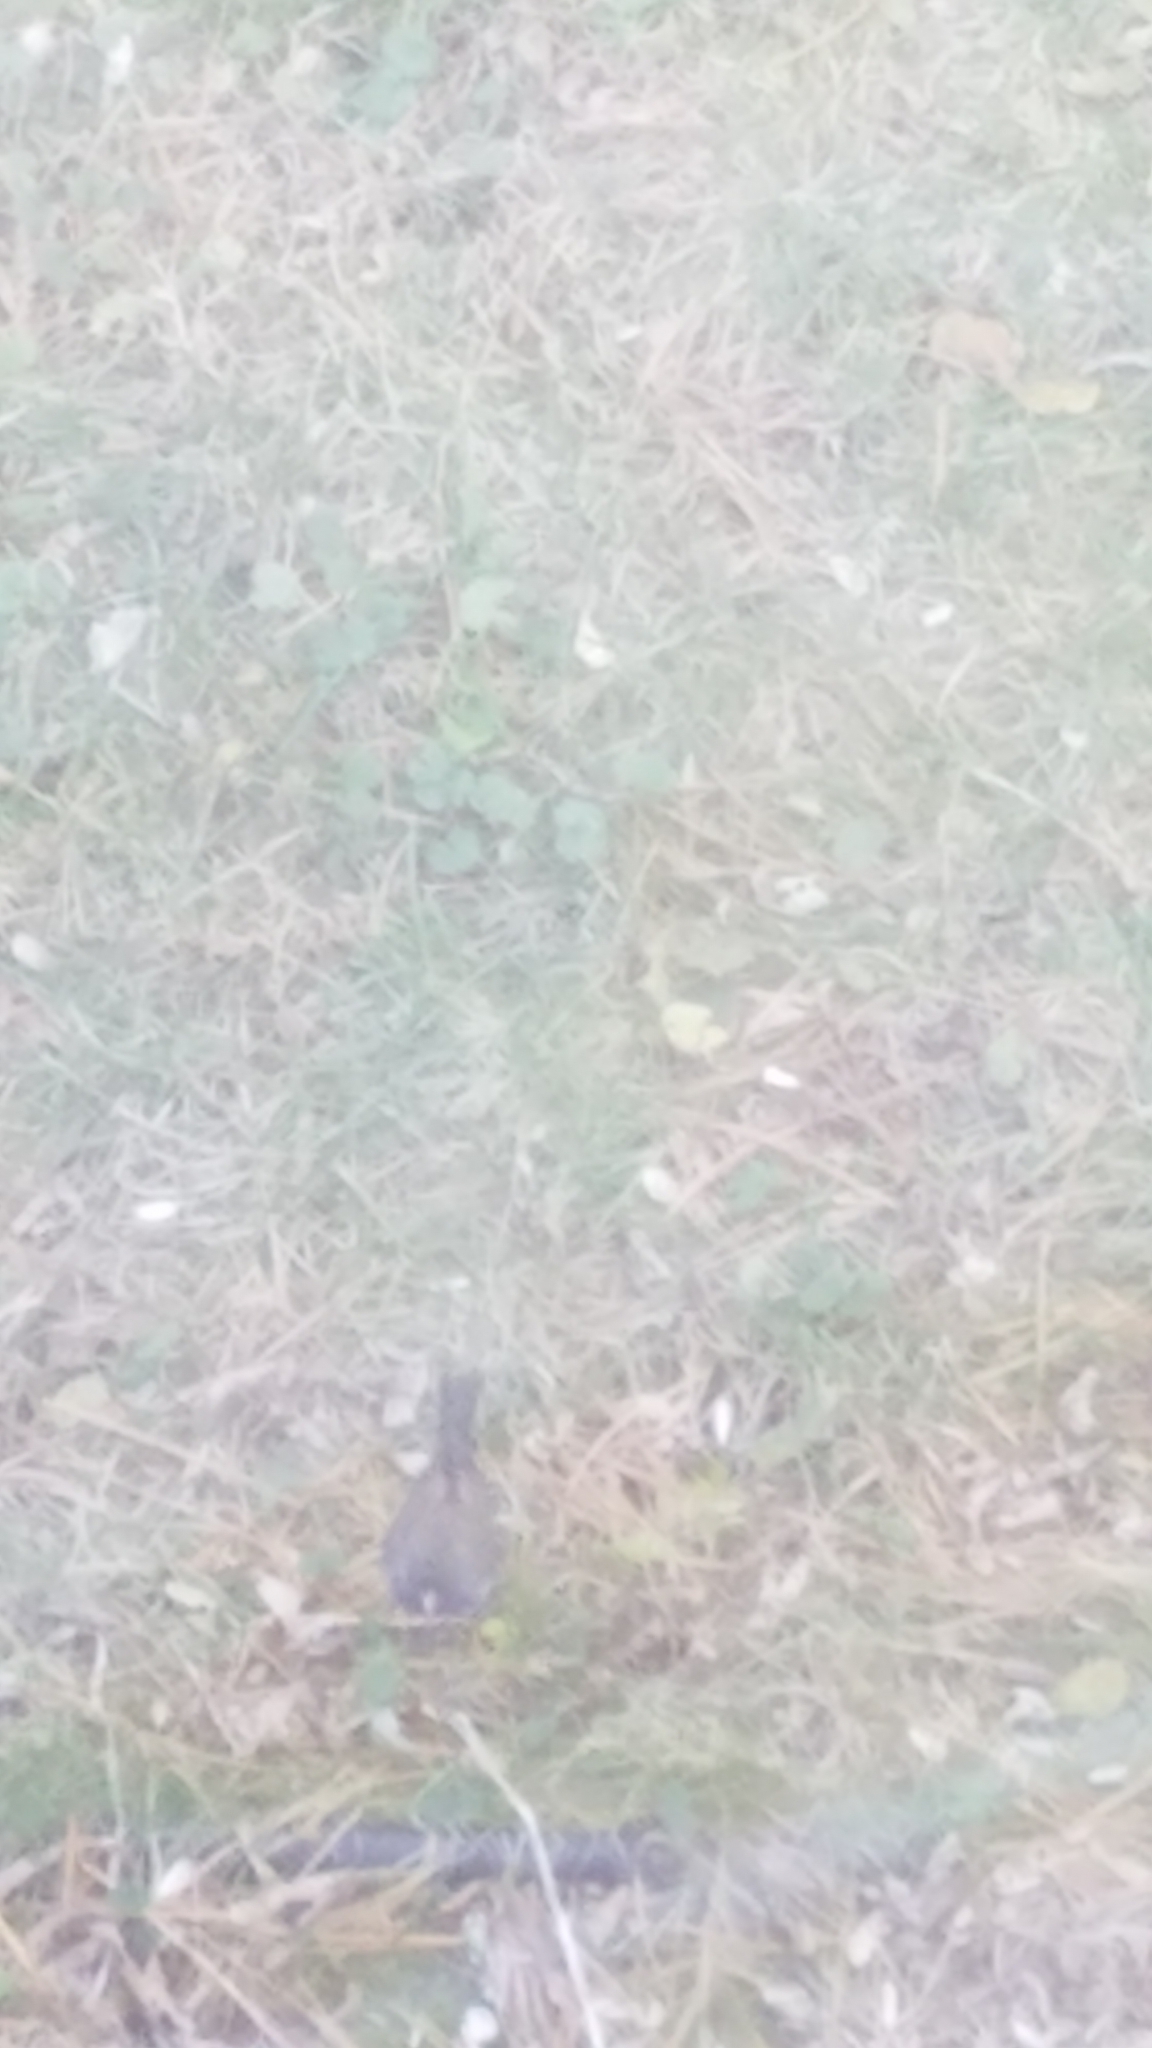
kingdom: Animalia
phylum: Chordata
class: Aves
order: Passeriformes
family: Passerellidae
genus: Junco
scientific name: Junco hyemalis
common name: Dark-eyed junco
